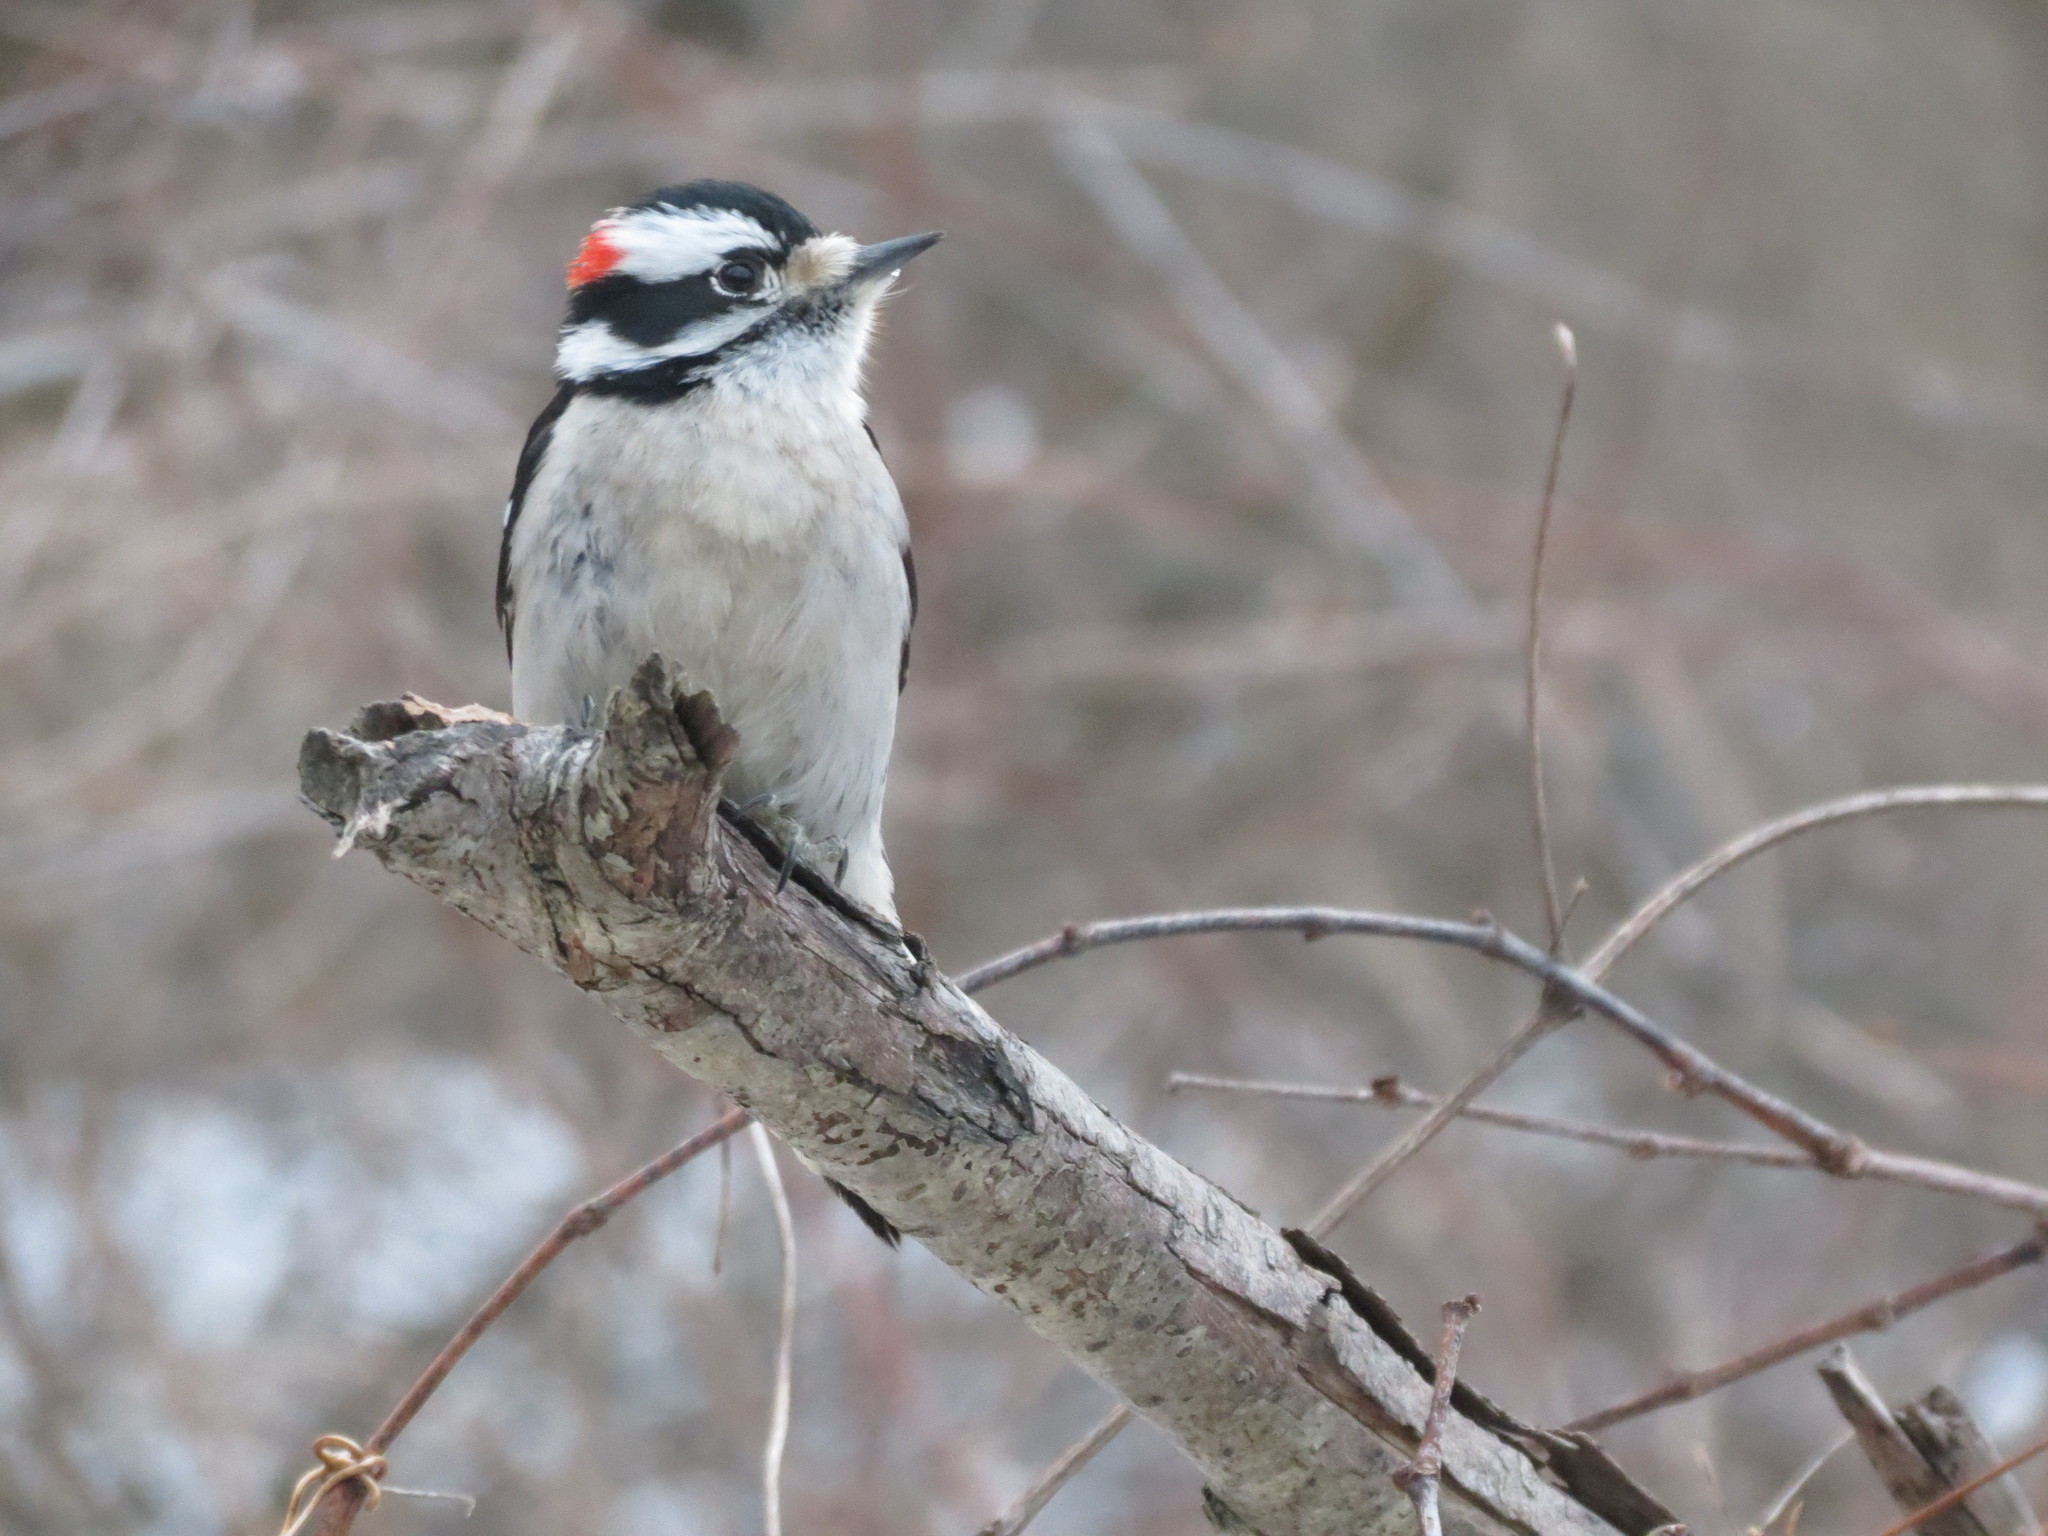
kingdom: Animalia
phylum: Chordata
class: Aves
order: Piciformes
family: Picidae
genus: Dryobates
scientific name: Dryobates pubescens
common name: Downy woodpecker
